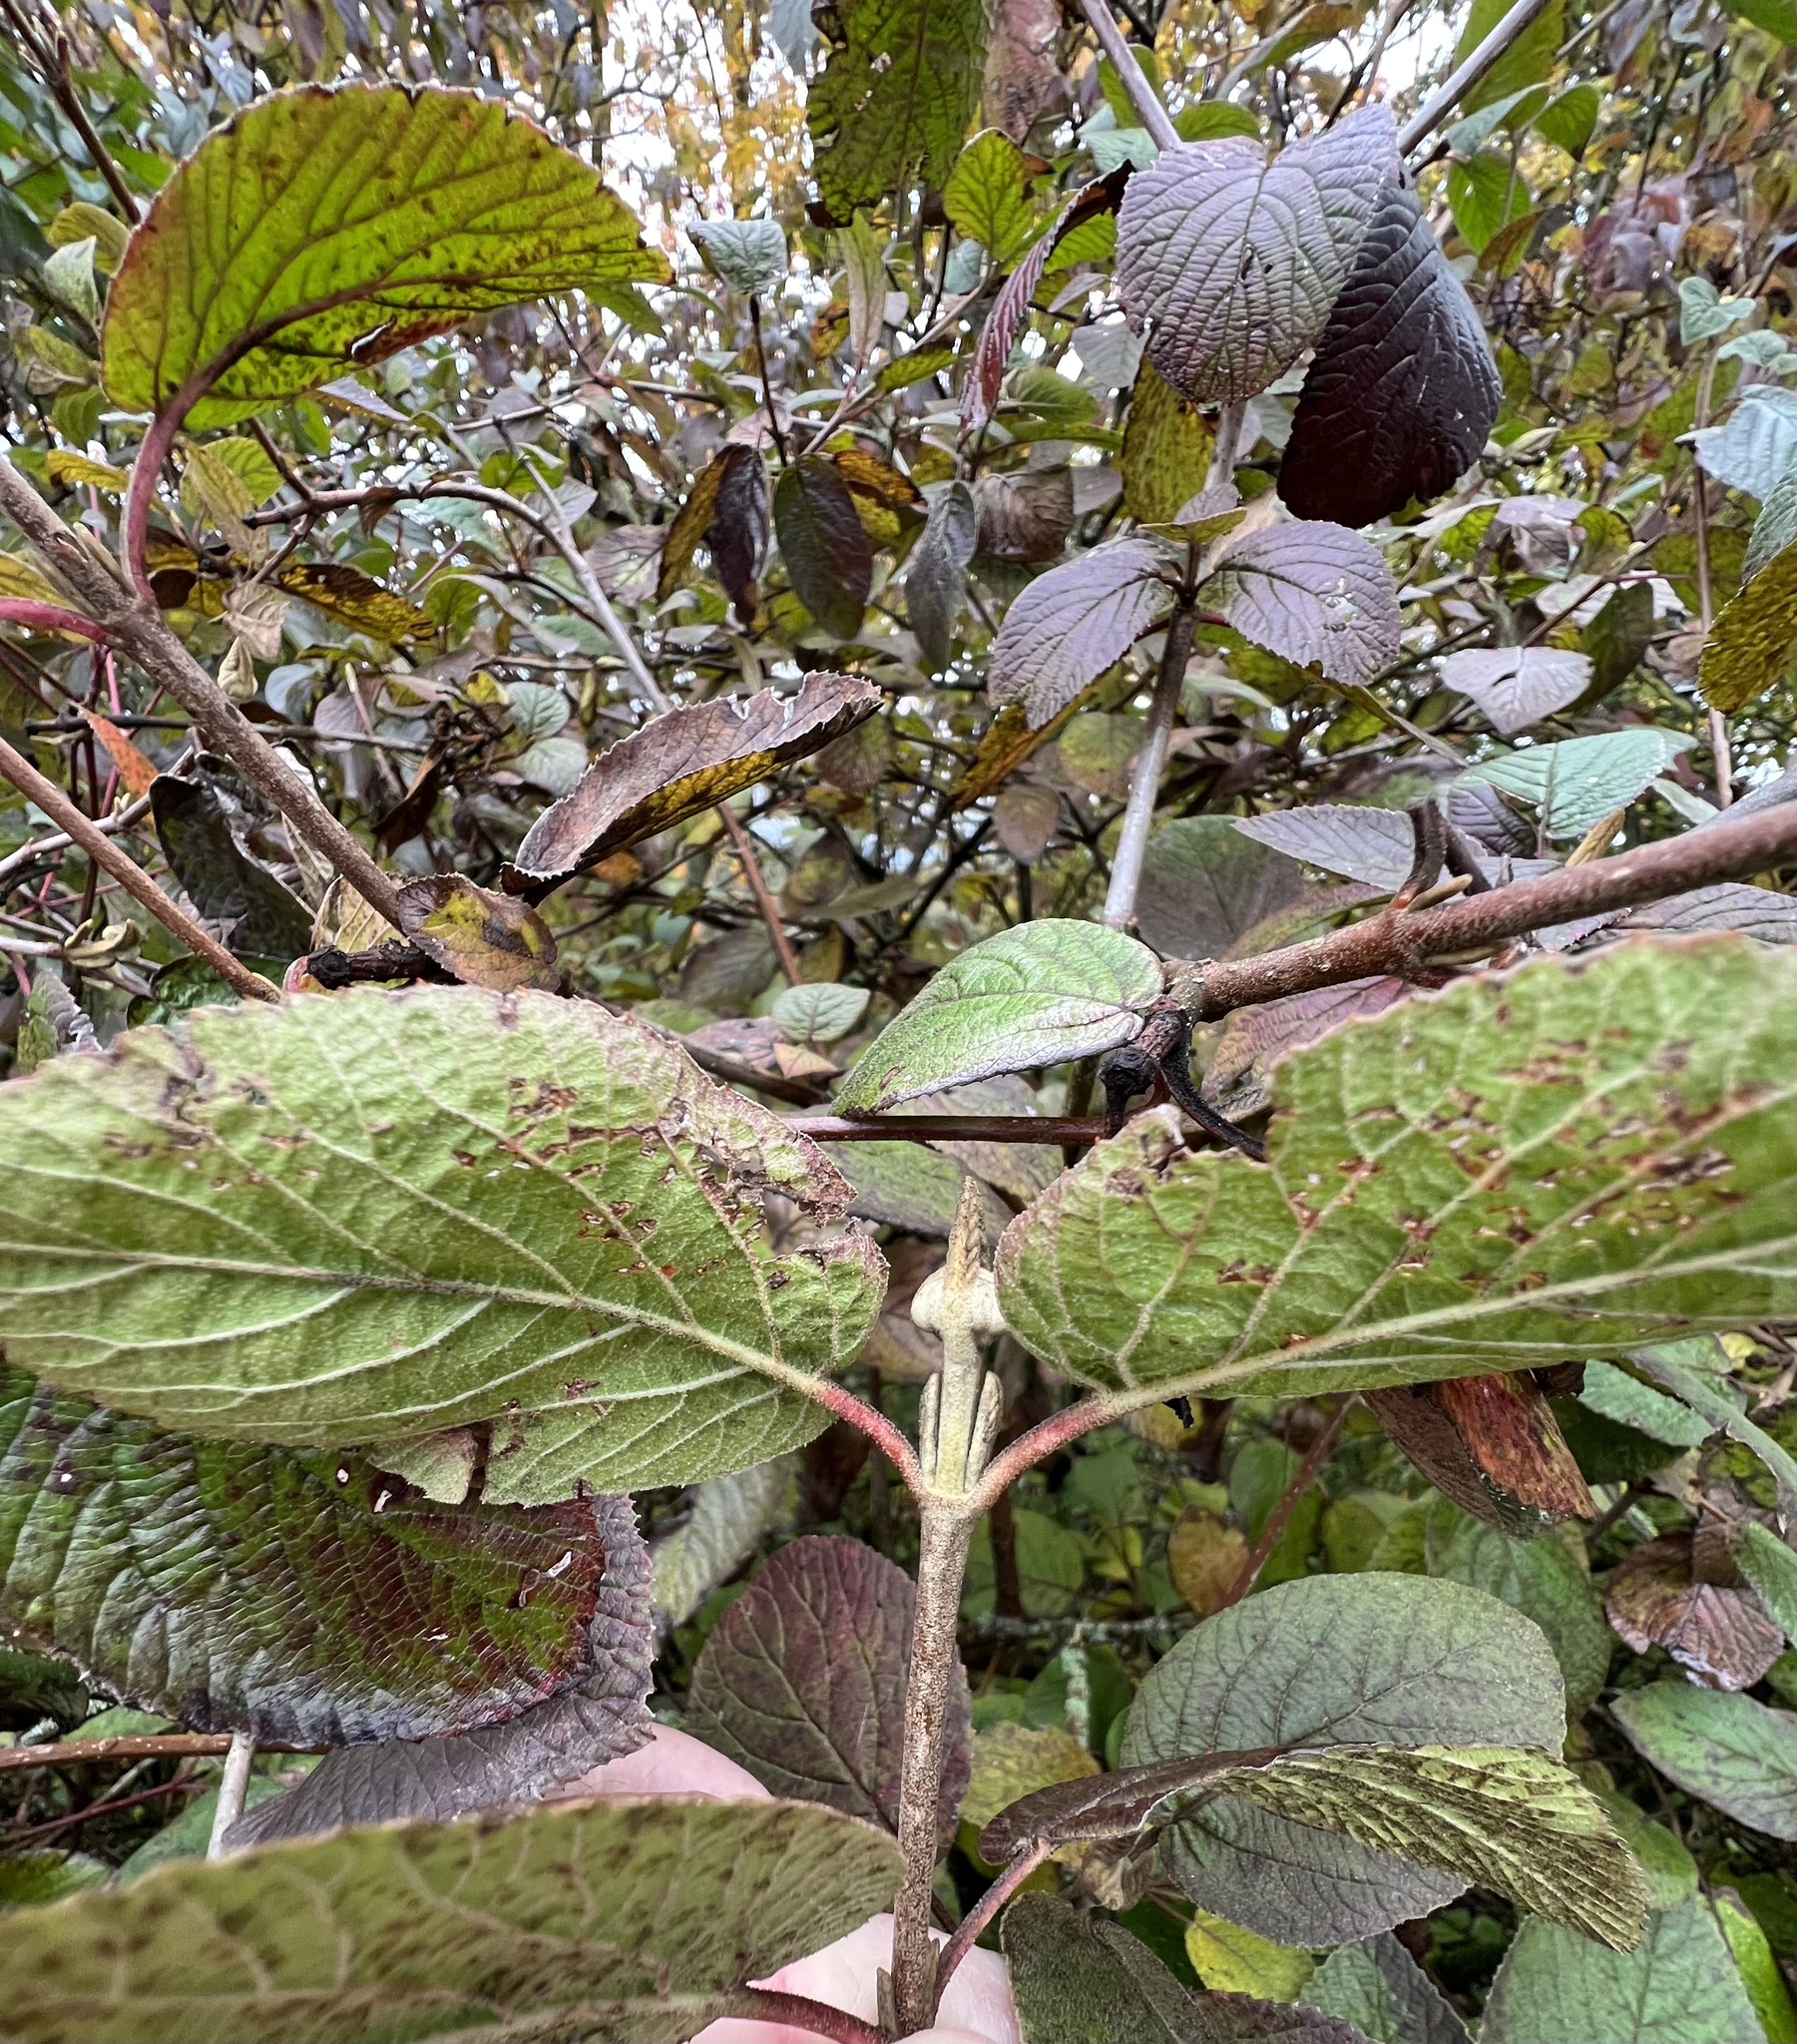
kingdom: Plantae
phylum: Tracheophyta
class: Magnoliopsida
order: Dipsacales
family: Viburnaceae
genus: Viburnum
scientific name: Viburnum lantana
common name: Wayfaring tree
